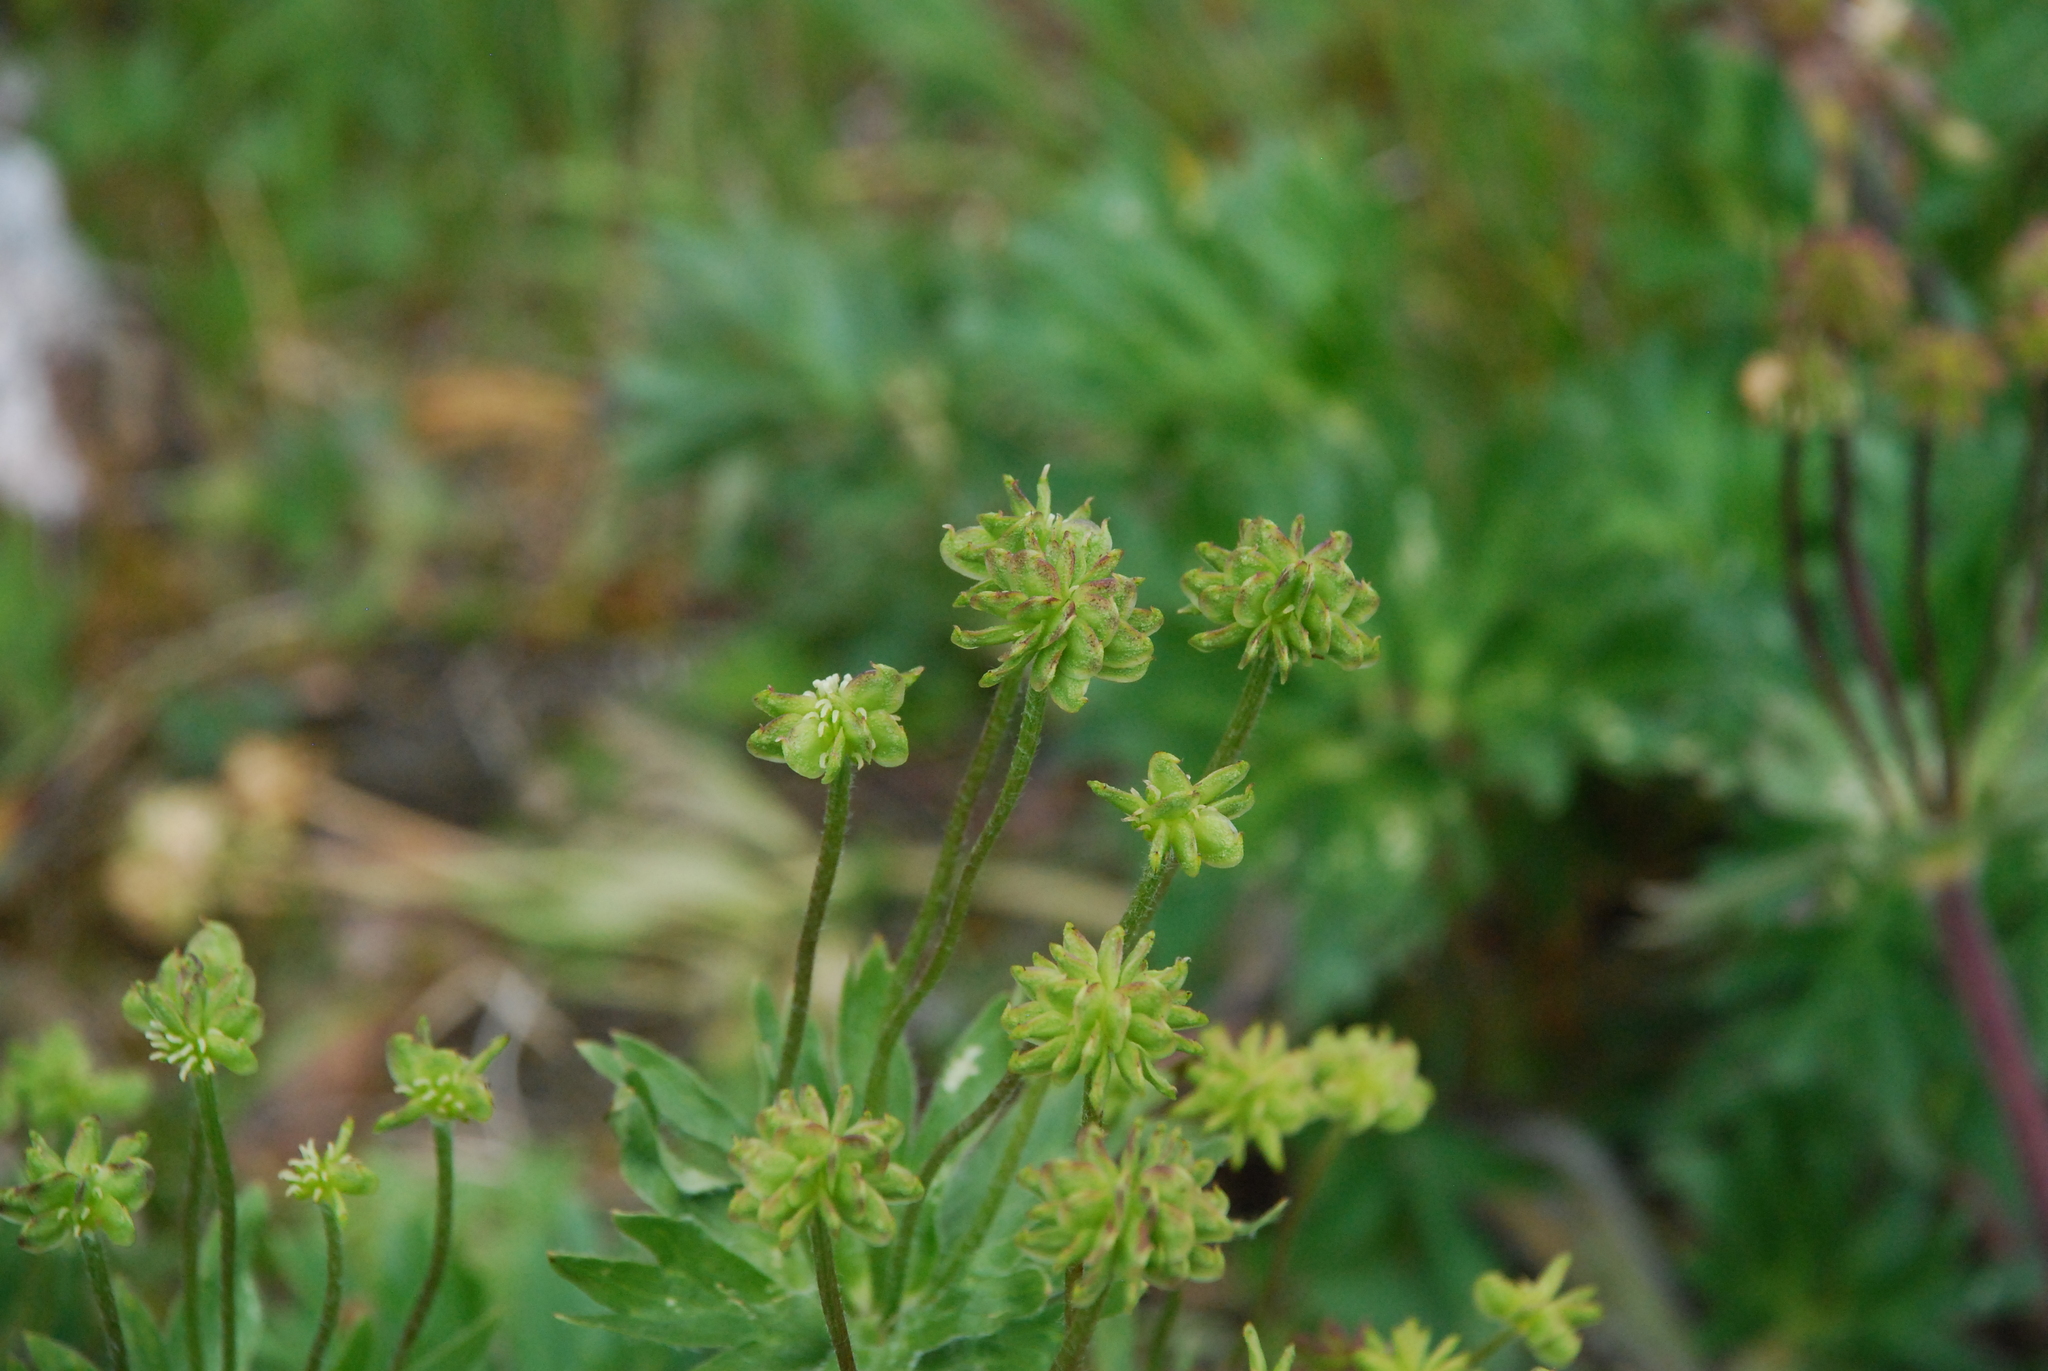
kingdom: Plantae
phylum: Tracheophyta
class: Magnoliopsida
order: Ranunculales
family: Ranunculaceae
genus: Anemonastrum
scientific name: Anemonastrum biarmiense
